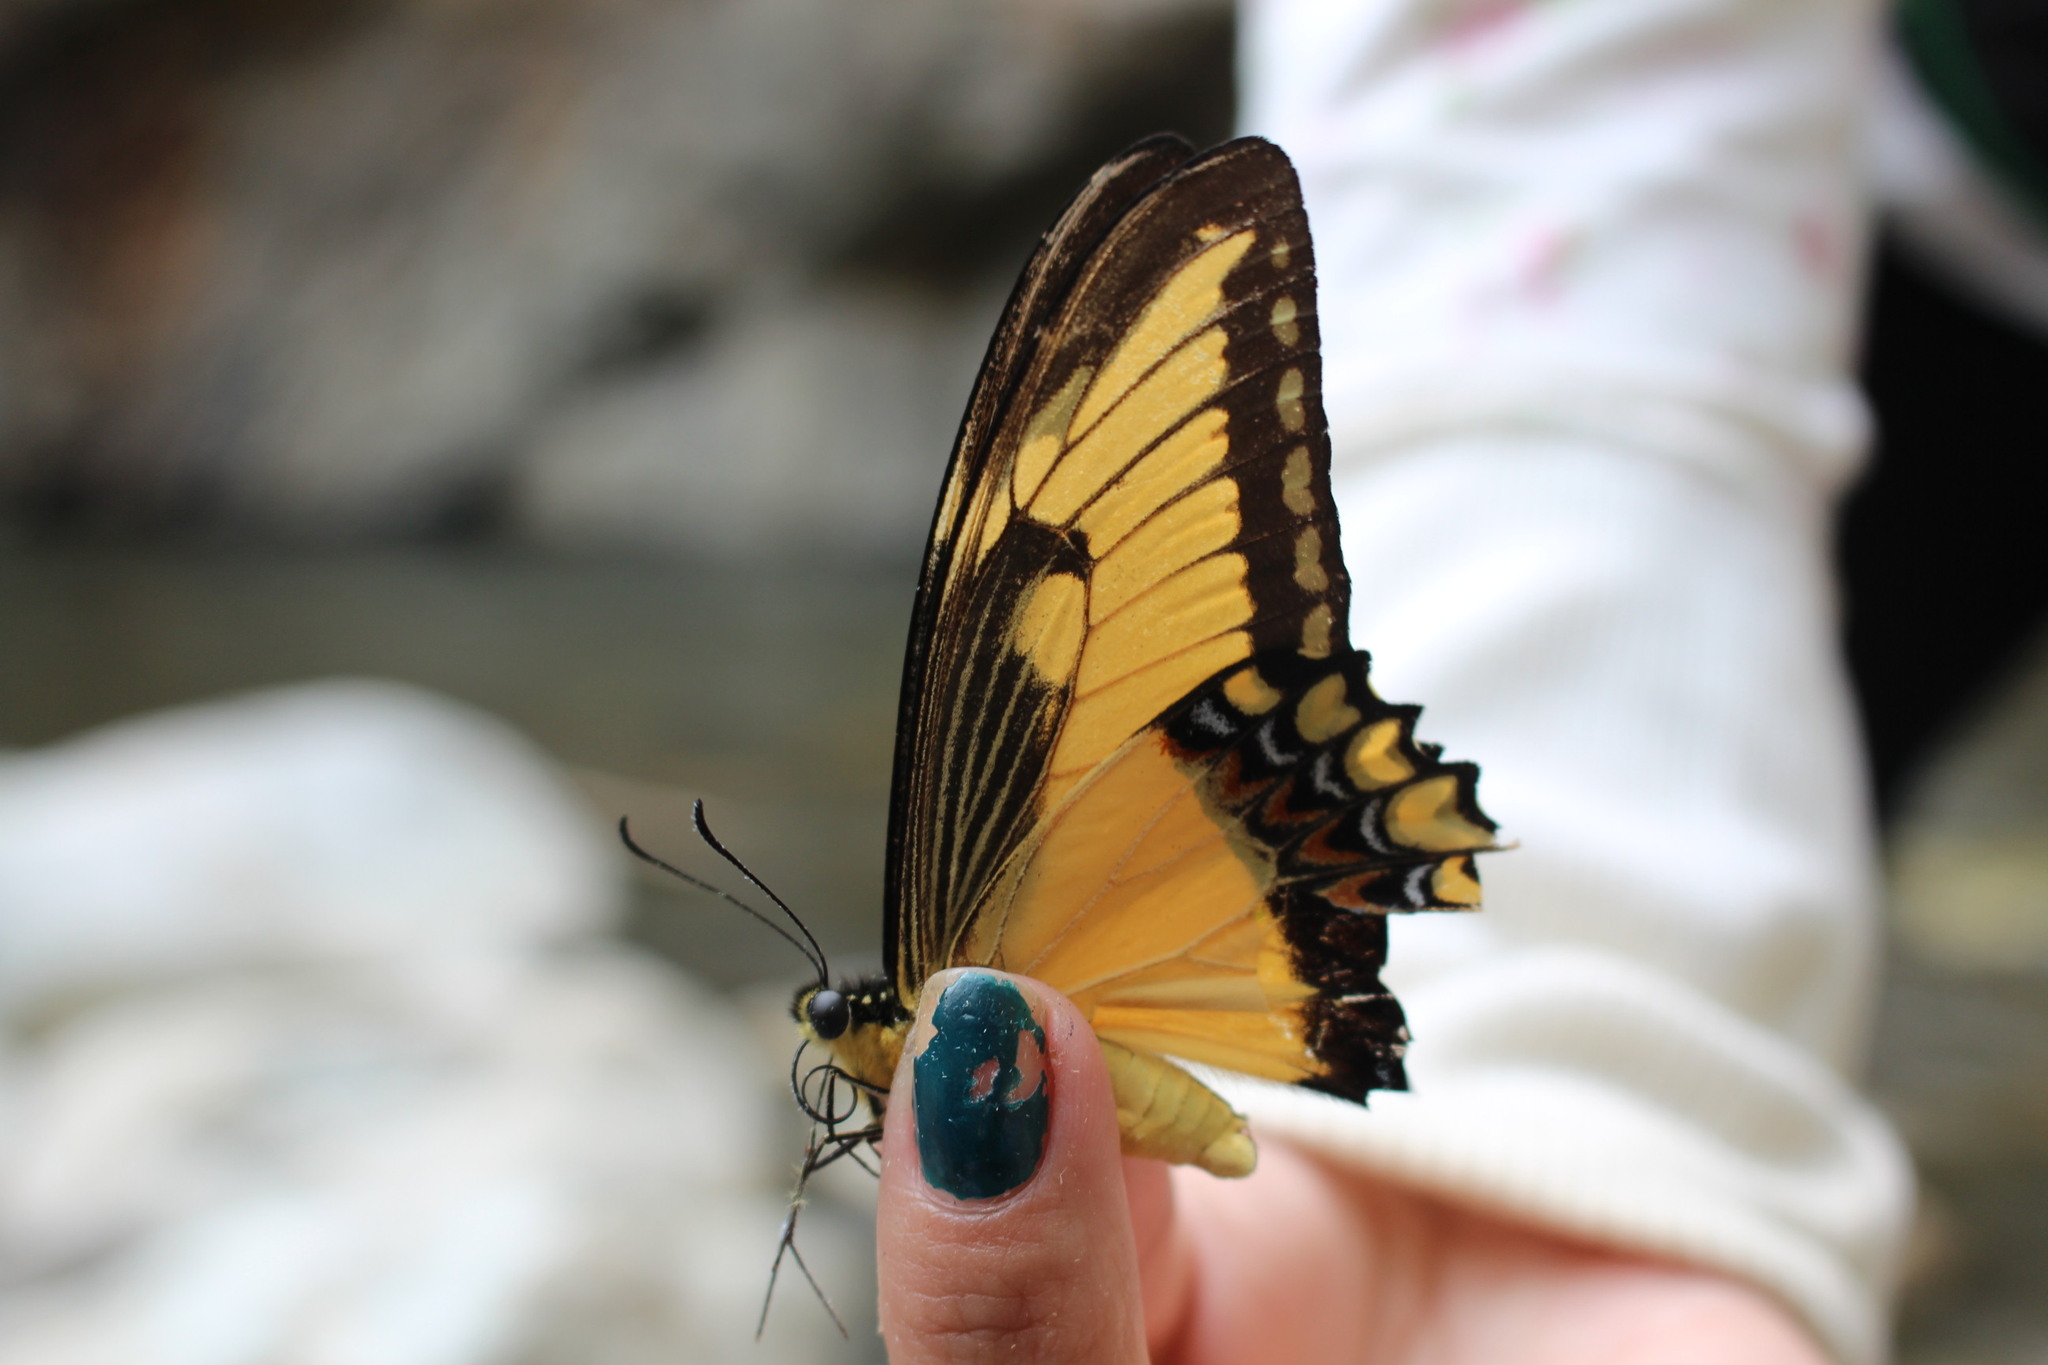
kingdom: Animalia
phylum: Arthropoda
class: Insecta
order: Lepidoptera
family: Papilionidae
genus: Papilio
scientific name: Papilio astyalus
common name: Astyalus swallowtail
